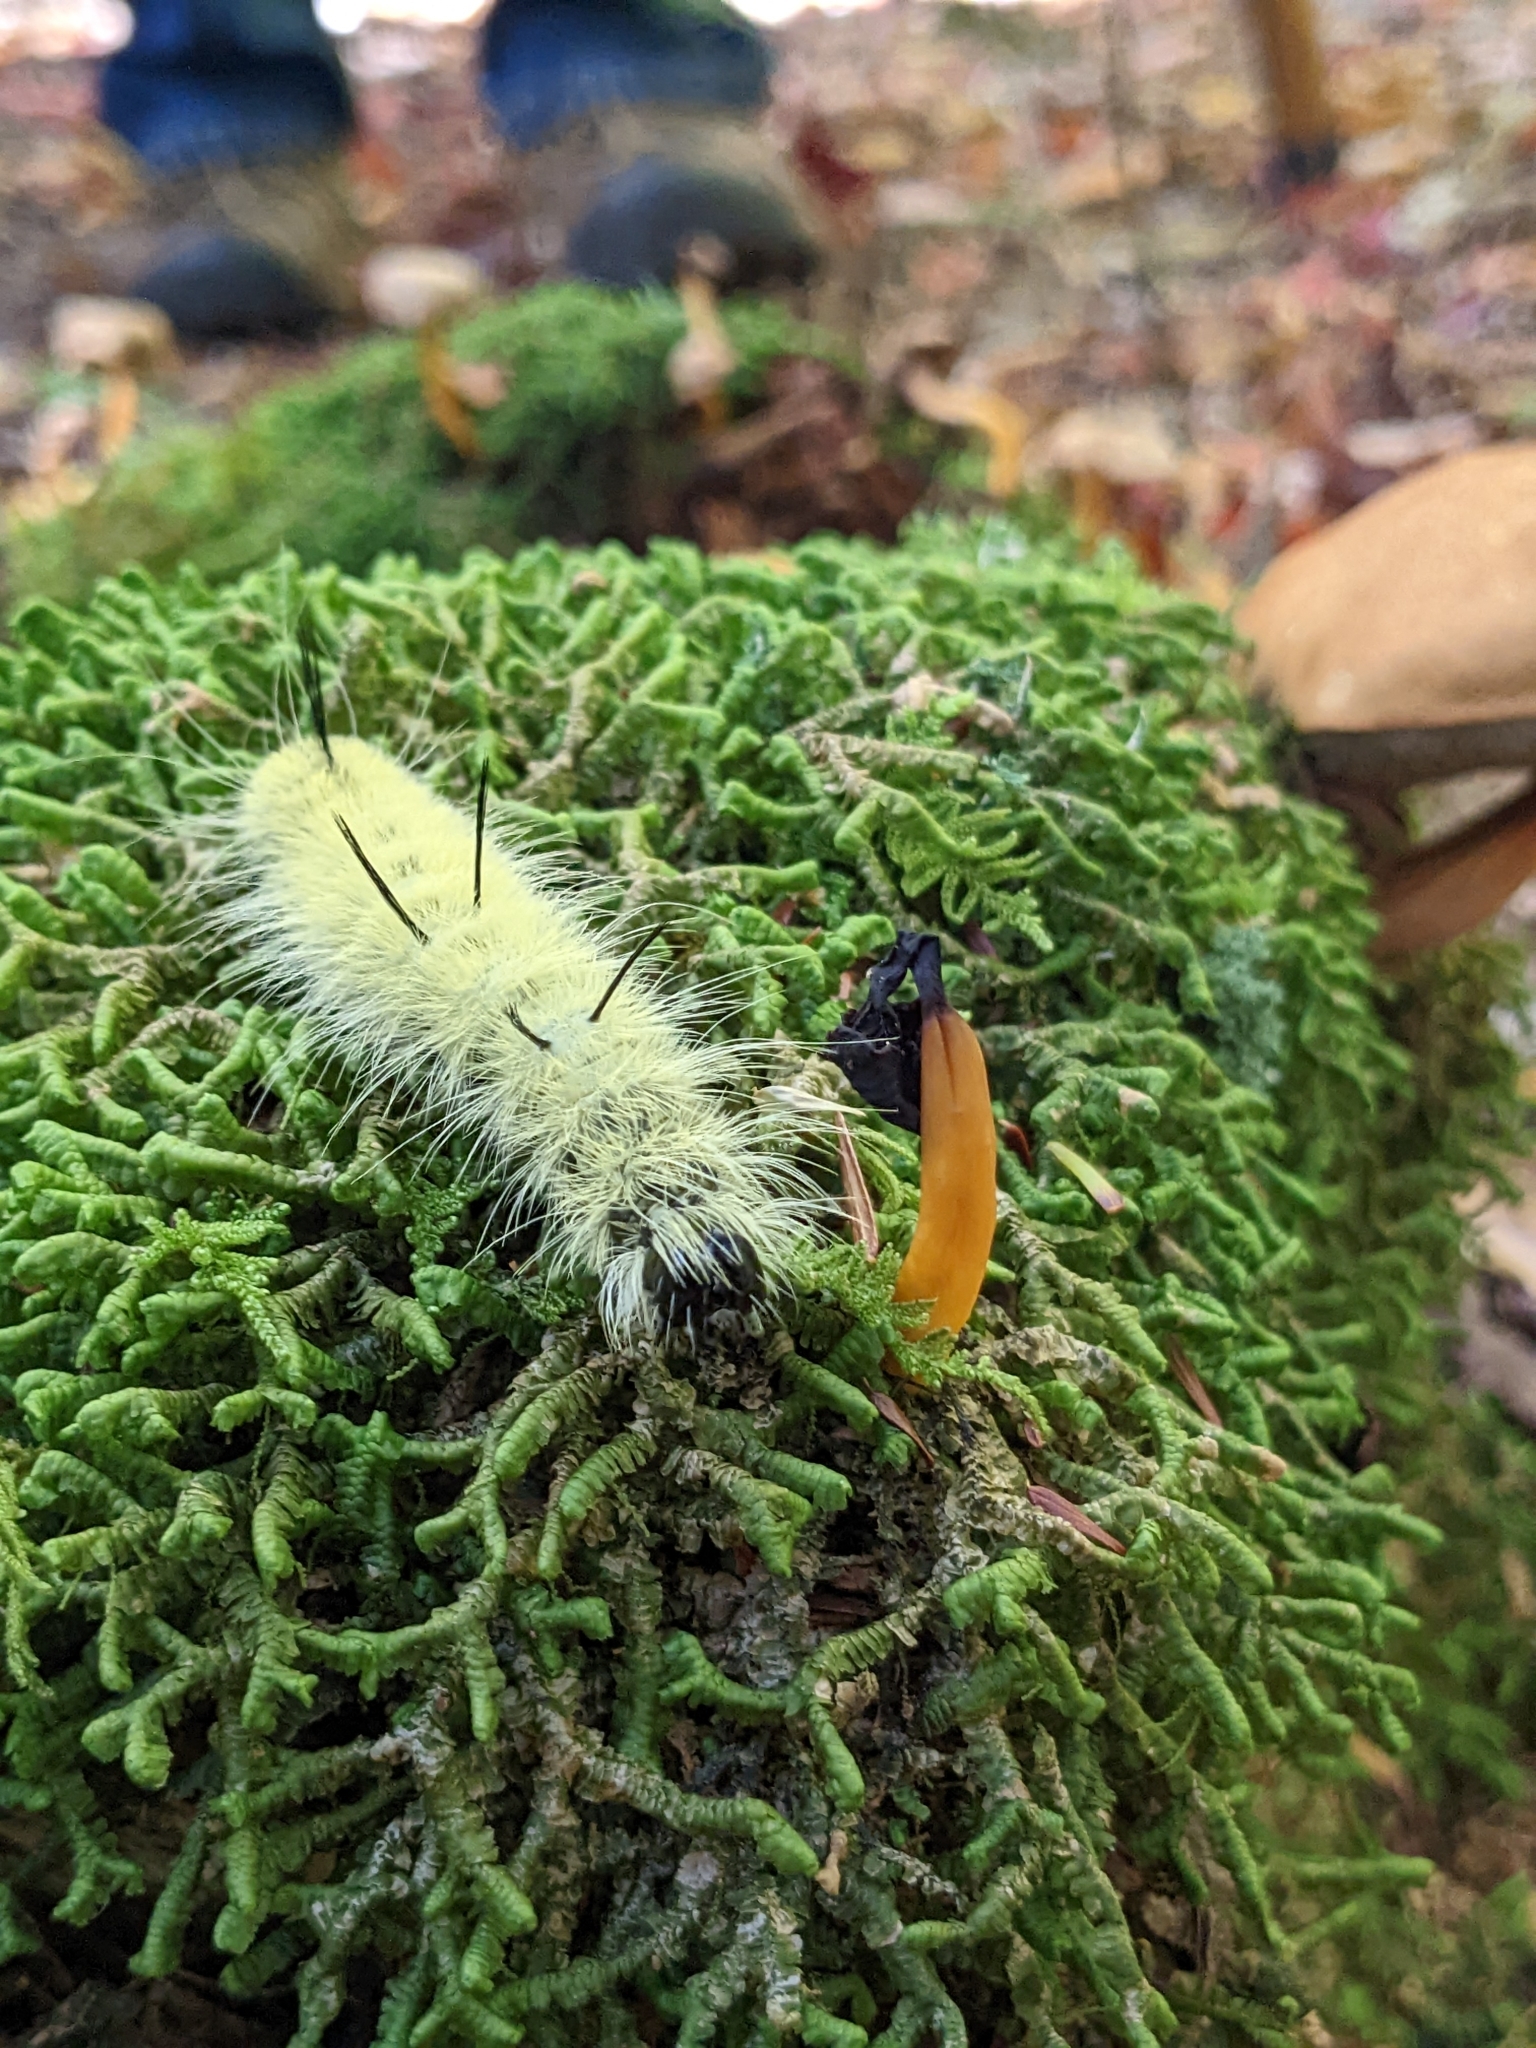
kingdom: Animalia
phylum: Arthropoda
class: Insecta
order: Lepidoptera
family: Noctuidae
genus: Acronicta
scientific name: Acronicta americana
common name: American dagger
